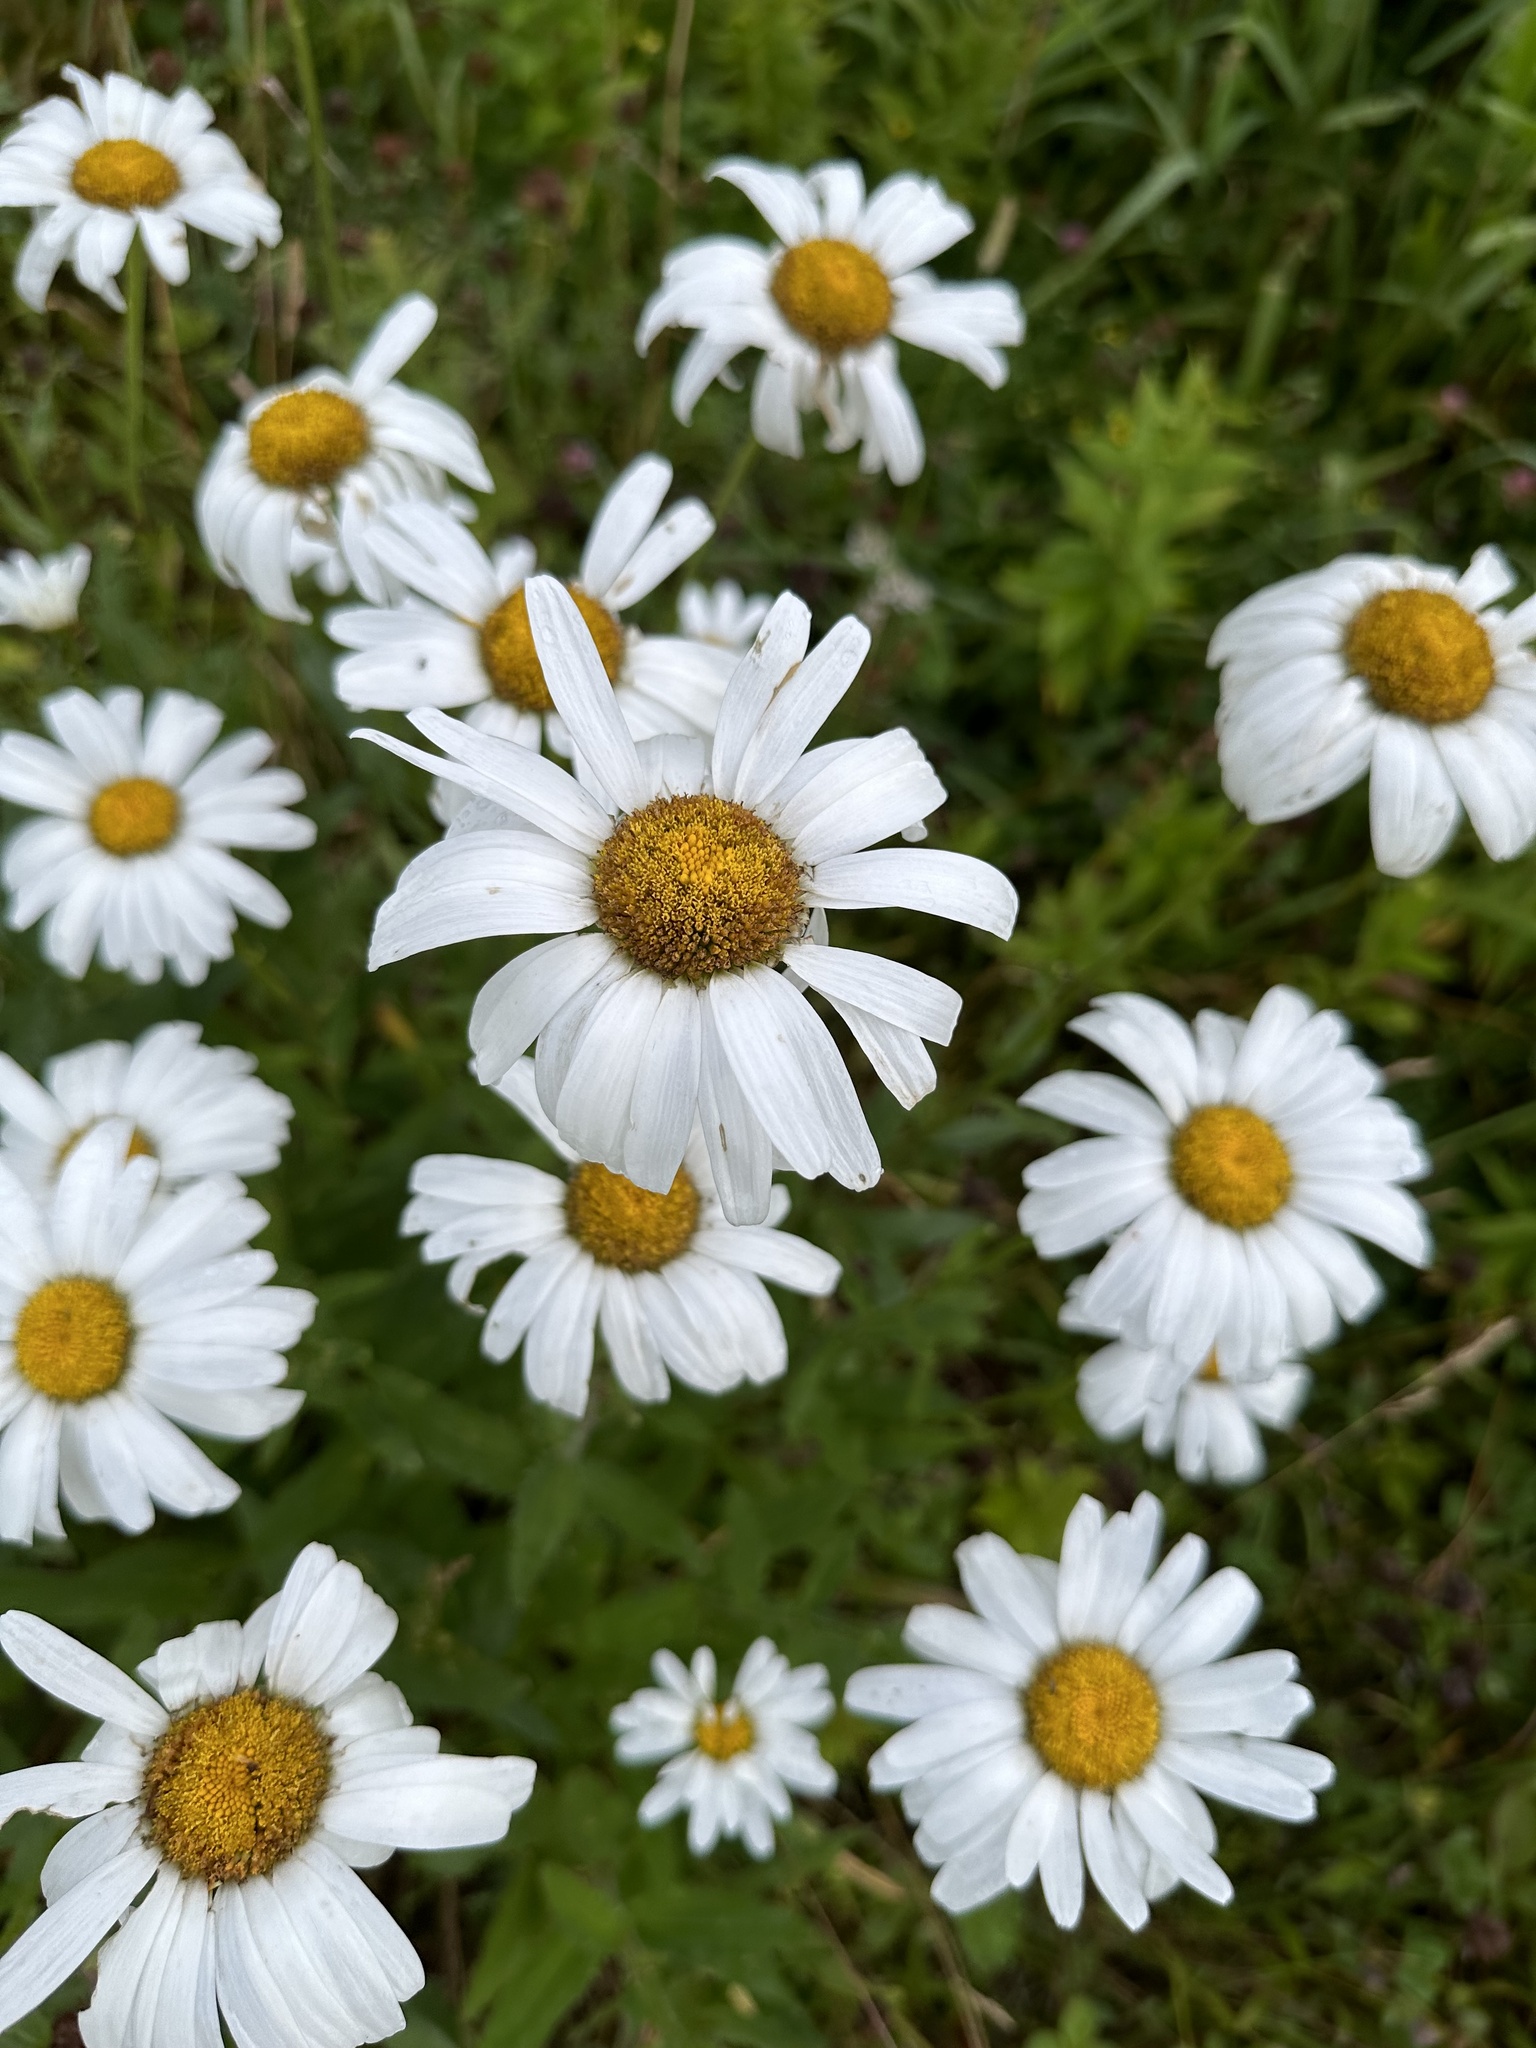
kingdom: Plantae
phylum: Tracheophyta
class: Magnoliopsida
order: Asterales
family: Asteraceae
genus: Leucanthemum
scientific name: Leucanthemum vulgare
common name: Oxeye daisy
